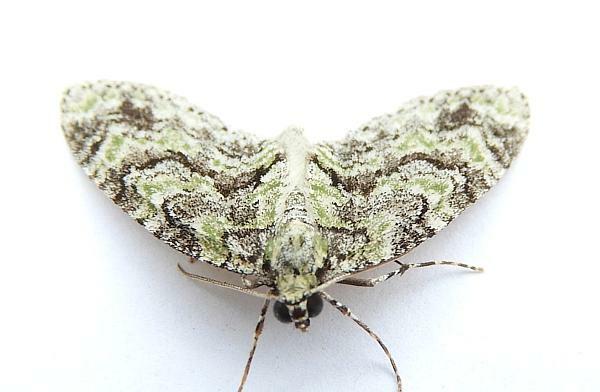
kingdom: Animalia
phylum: Arthropoda
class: Insecta
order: Lepidoptera
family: Geometridae
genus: Cladara
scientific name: Cladara limitaria
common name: Mottled gray carpet
